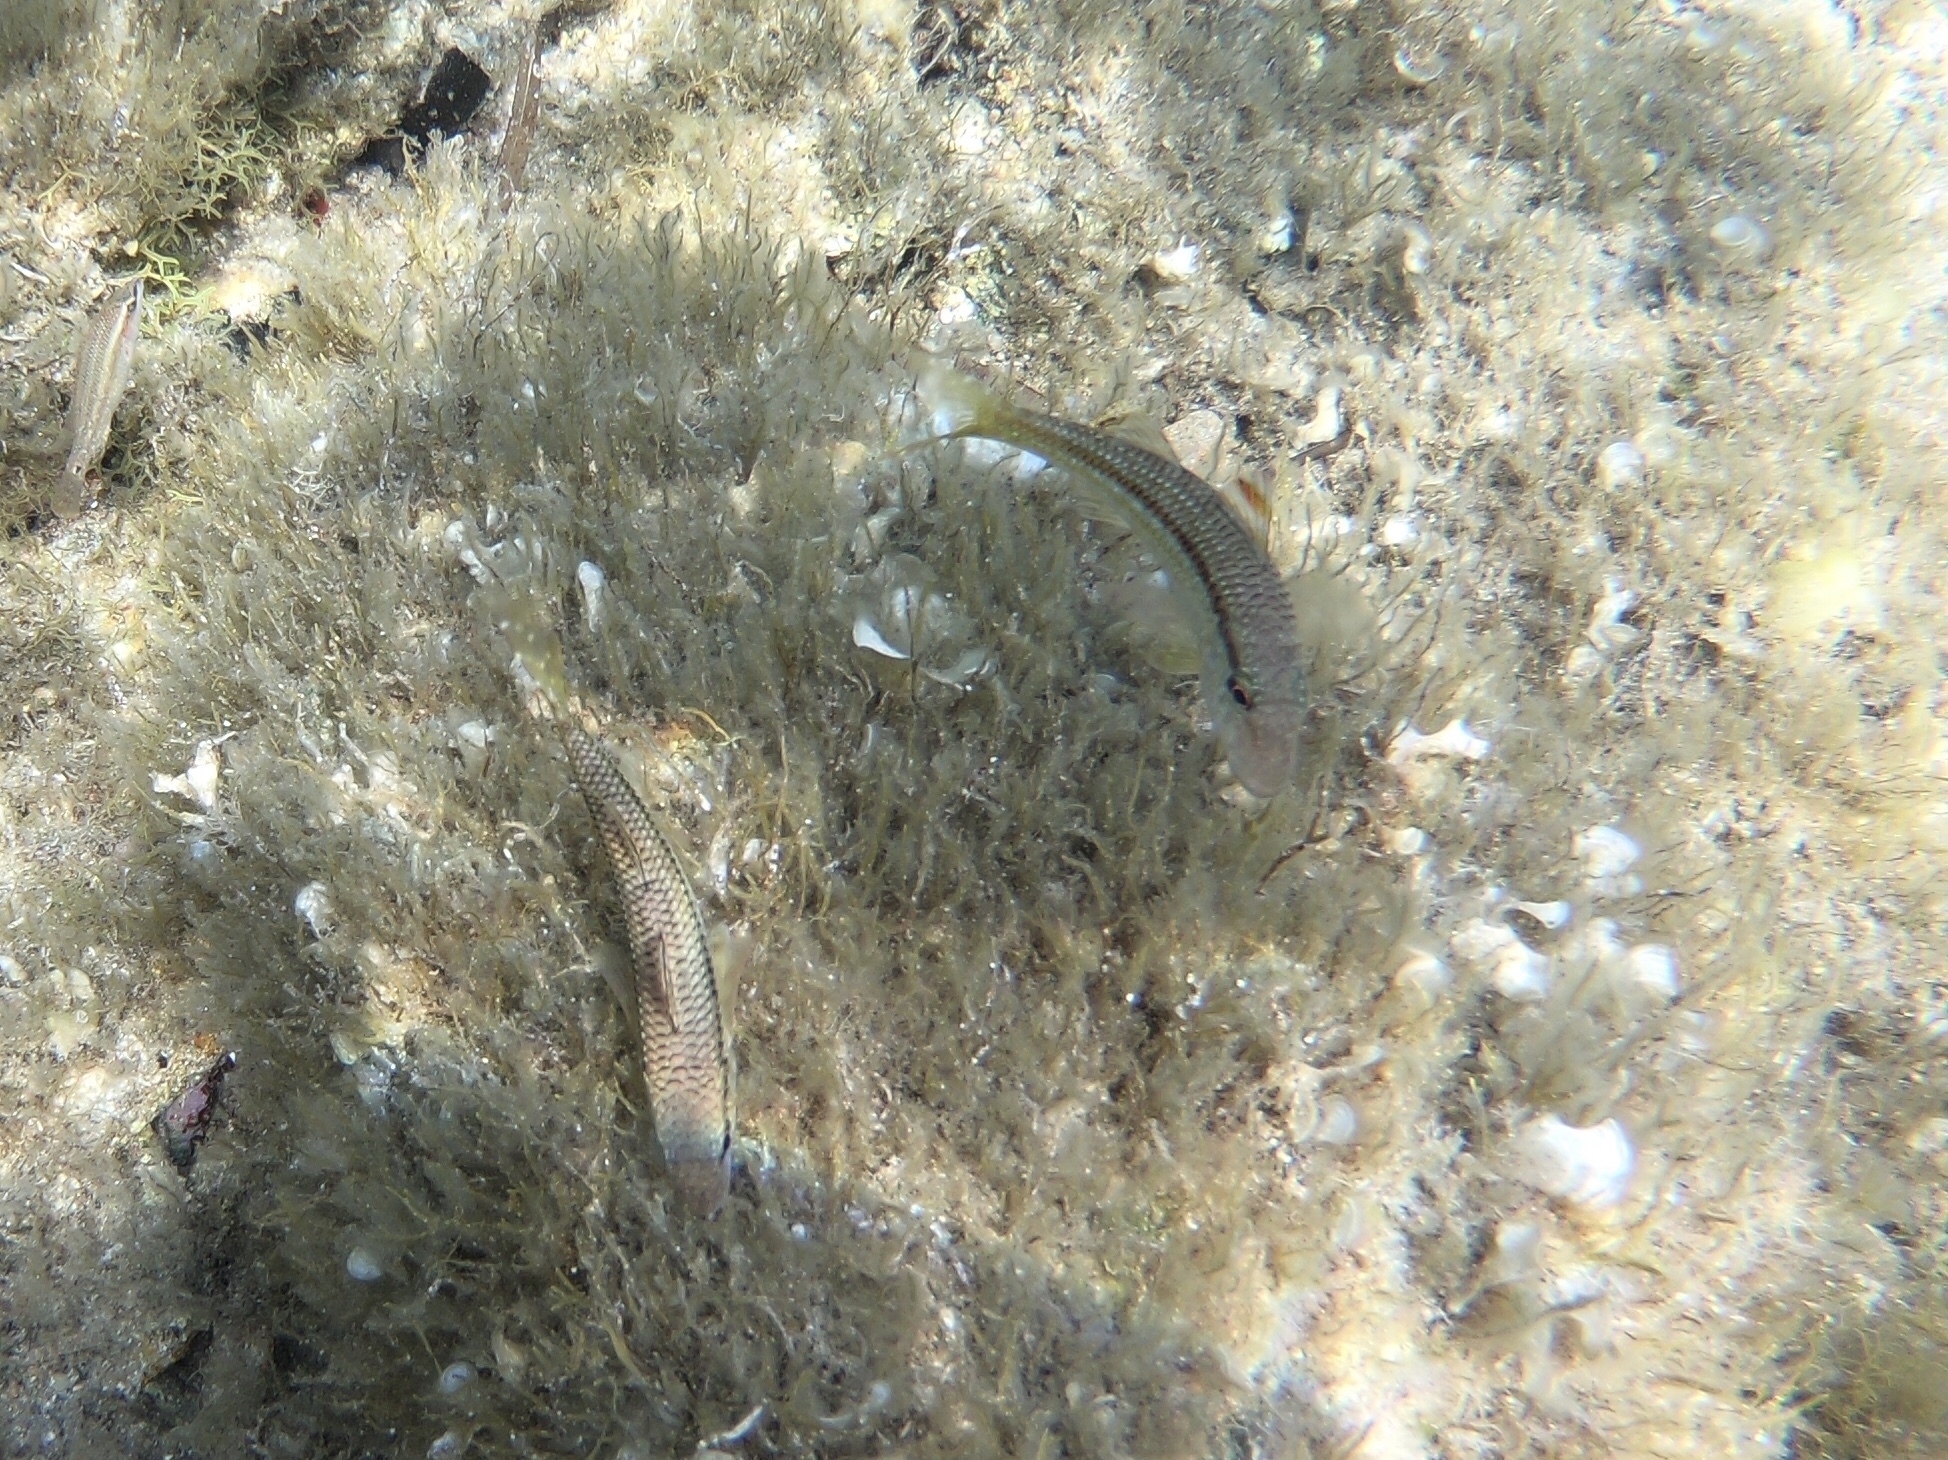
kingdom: Animalia
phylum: Chordata
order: Perciformes
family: Mullidae
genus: Mullus
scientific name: Mullus surmuletus
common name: Red mullet
